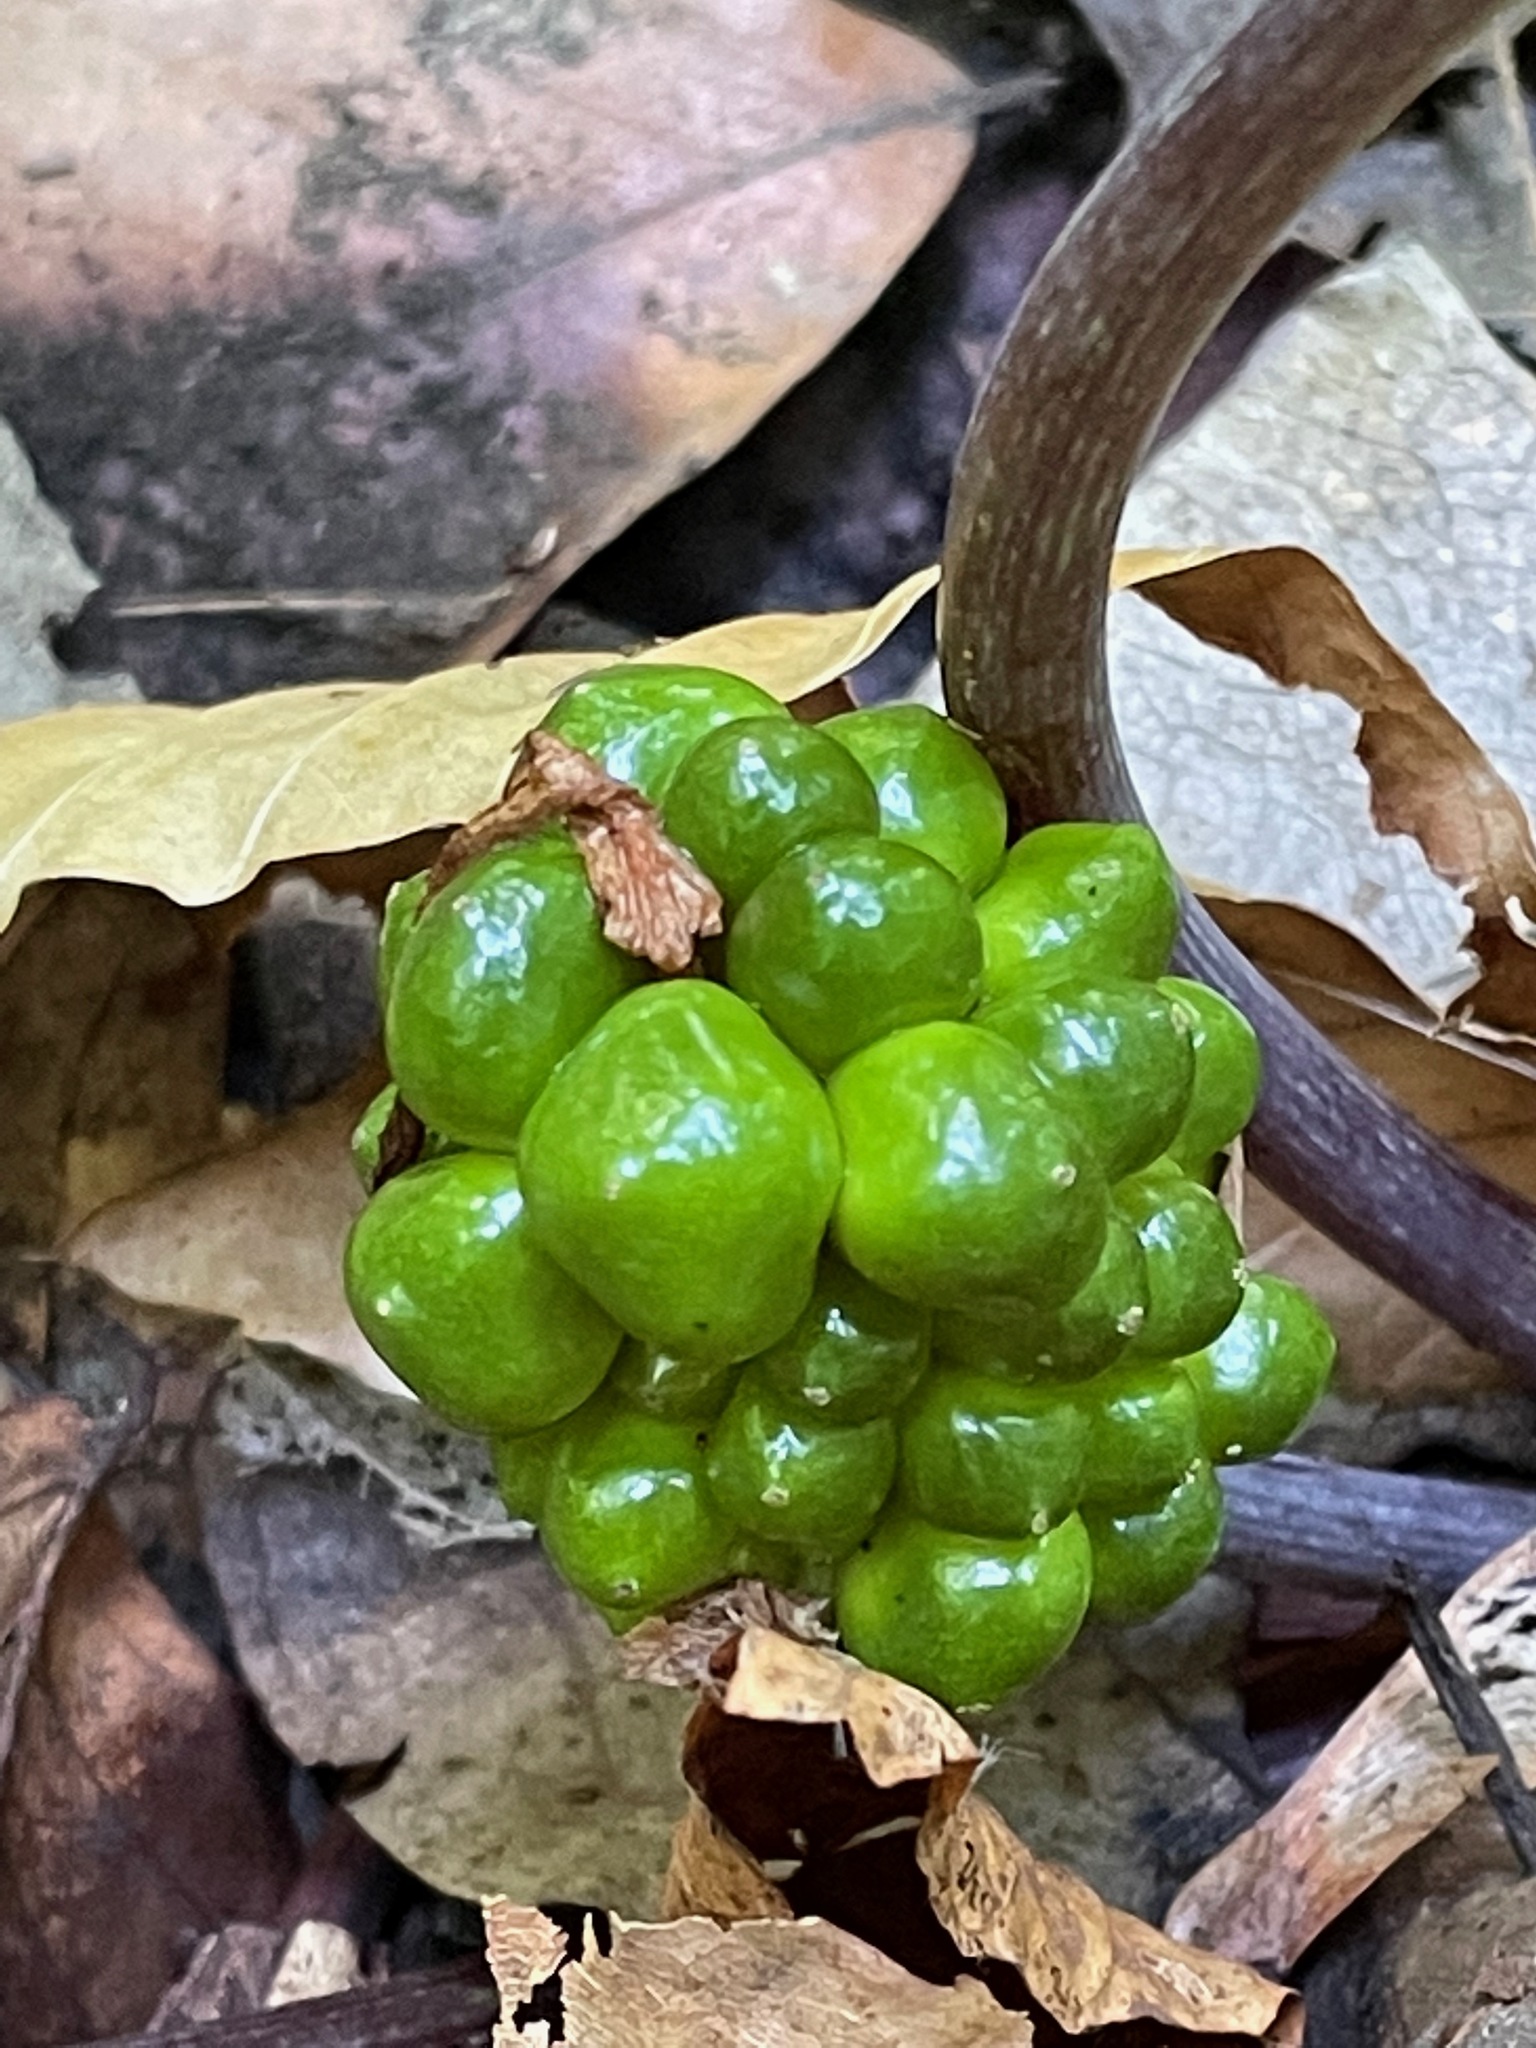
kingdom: Plantae
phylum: Tracheophyta
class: Liliopsida
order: Alismatales
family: Araceae
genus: Arisaema
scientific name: Arisaema
